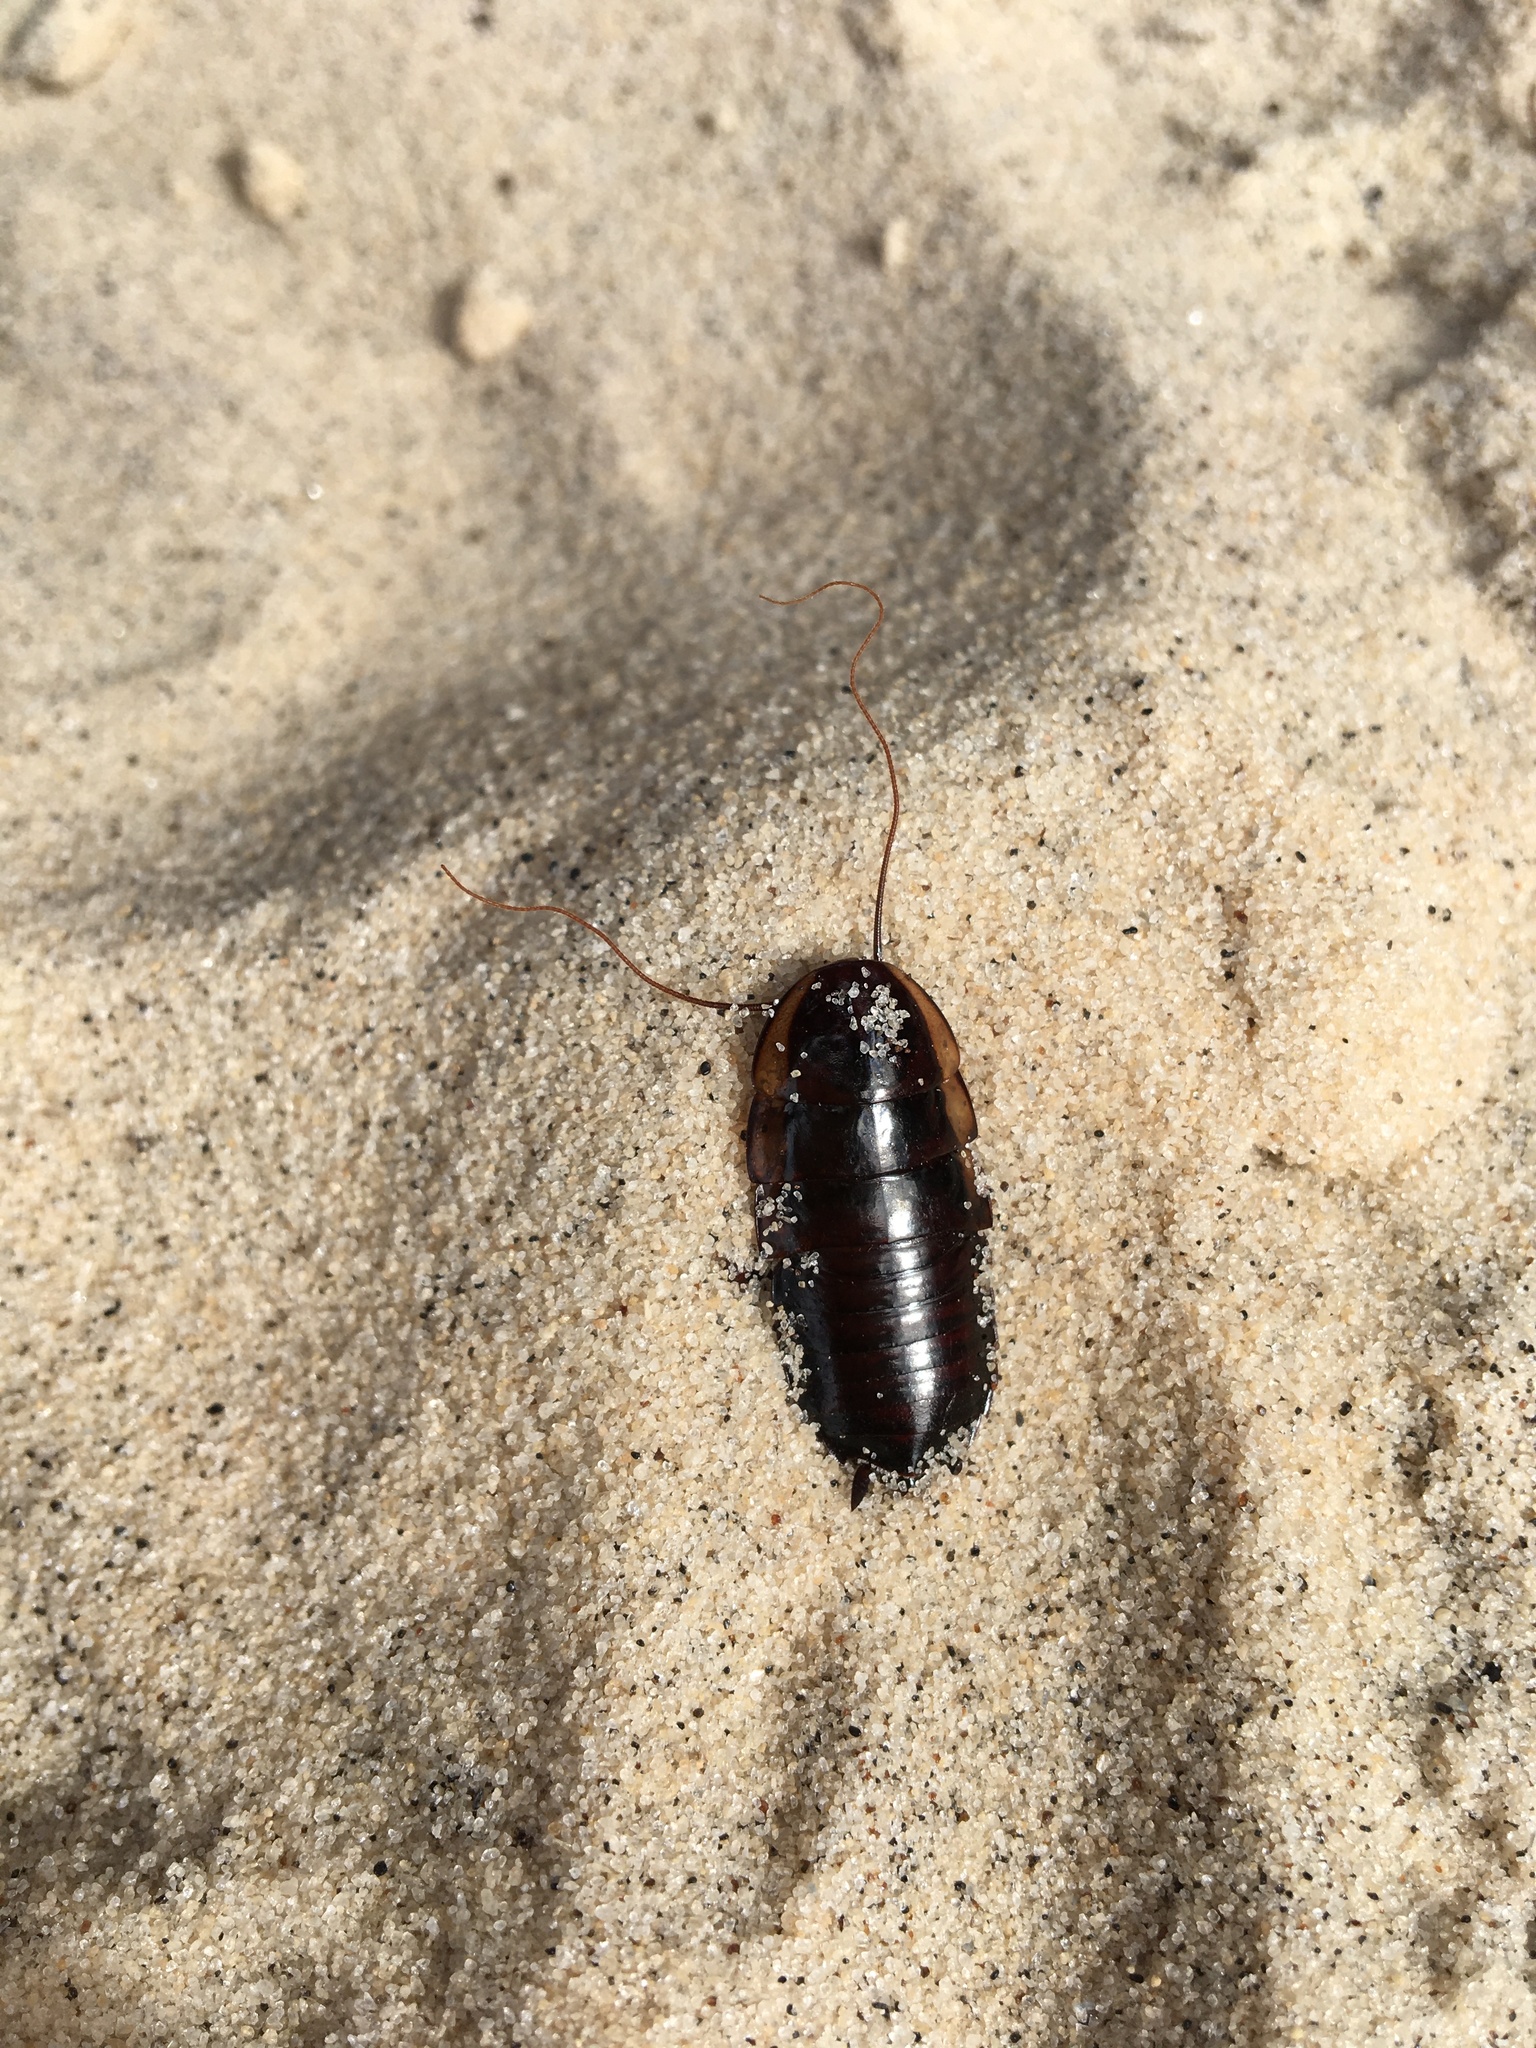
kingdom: Animalia
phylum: Arthropoda
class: Insecta
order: Blattodea
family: Blattidae
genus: Eurycotis
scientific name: Eurycotis floridana
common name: Florida cockroach
